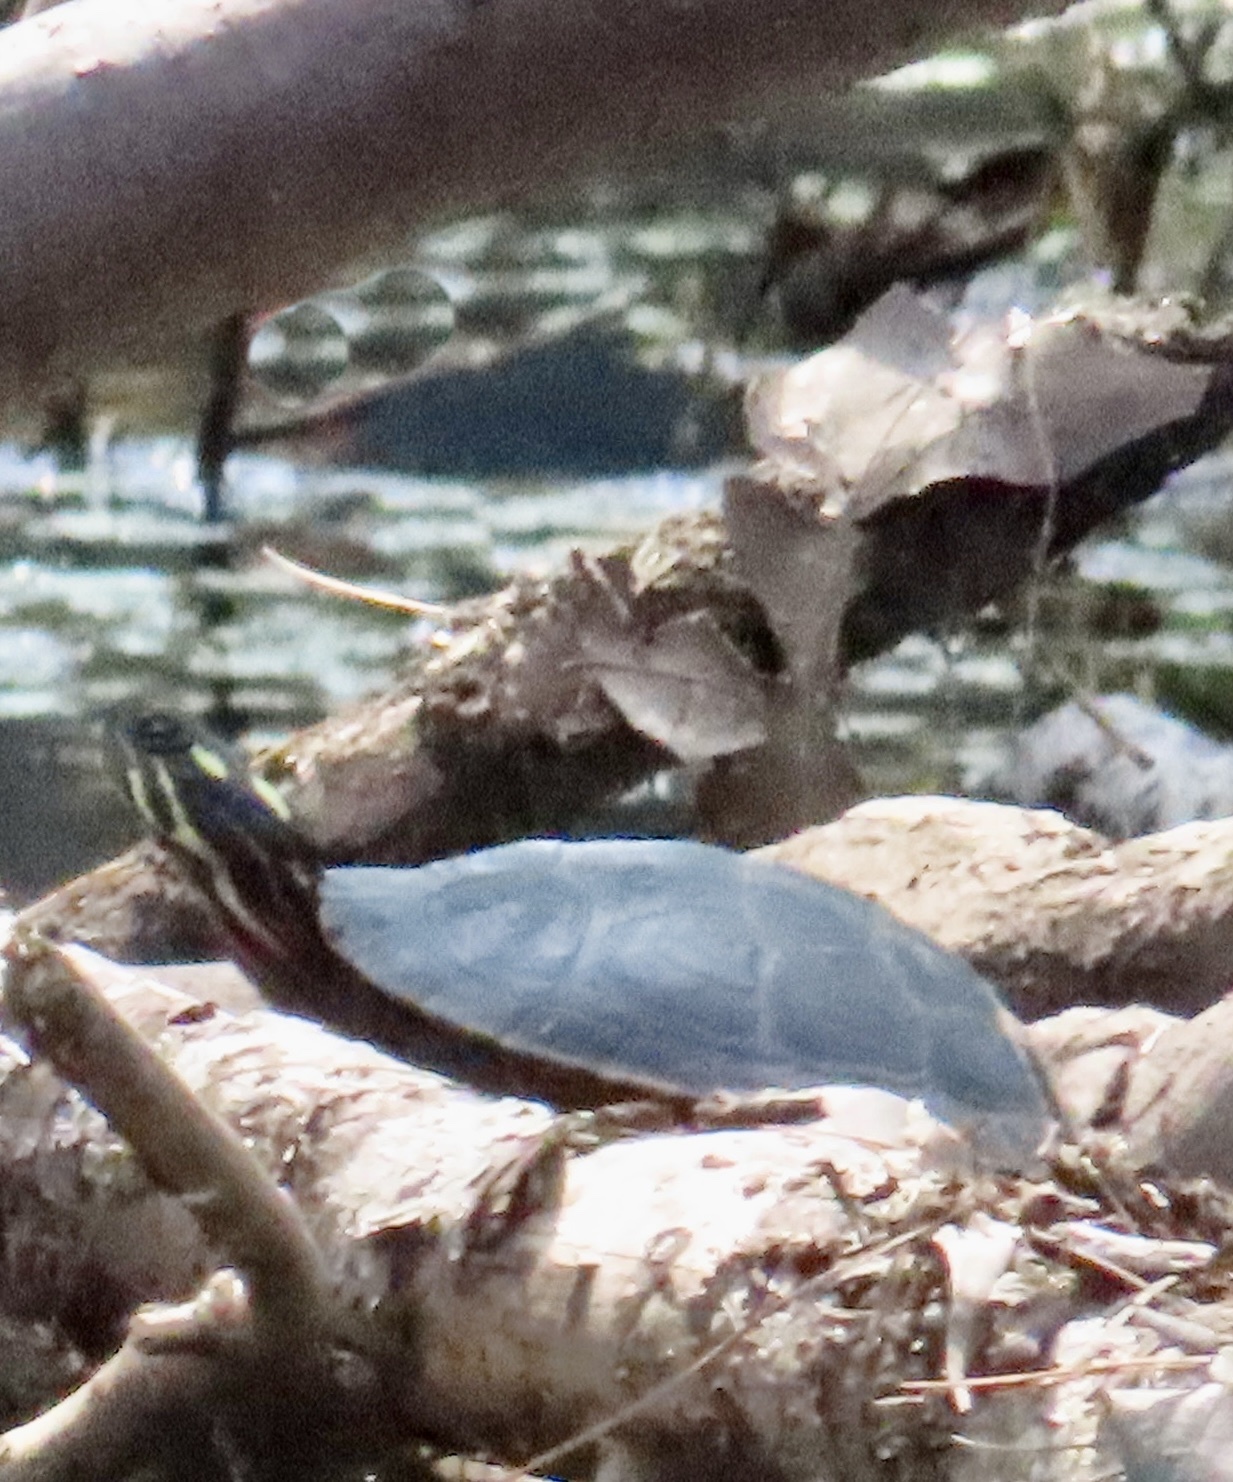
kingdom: Animalia
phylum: Chordata
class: Testudines
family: Emydidae
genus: Chrysemys
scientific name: Chrysemys picta
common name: Painted turtle
